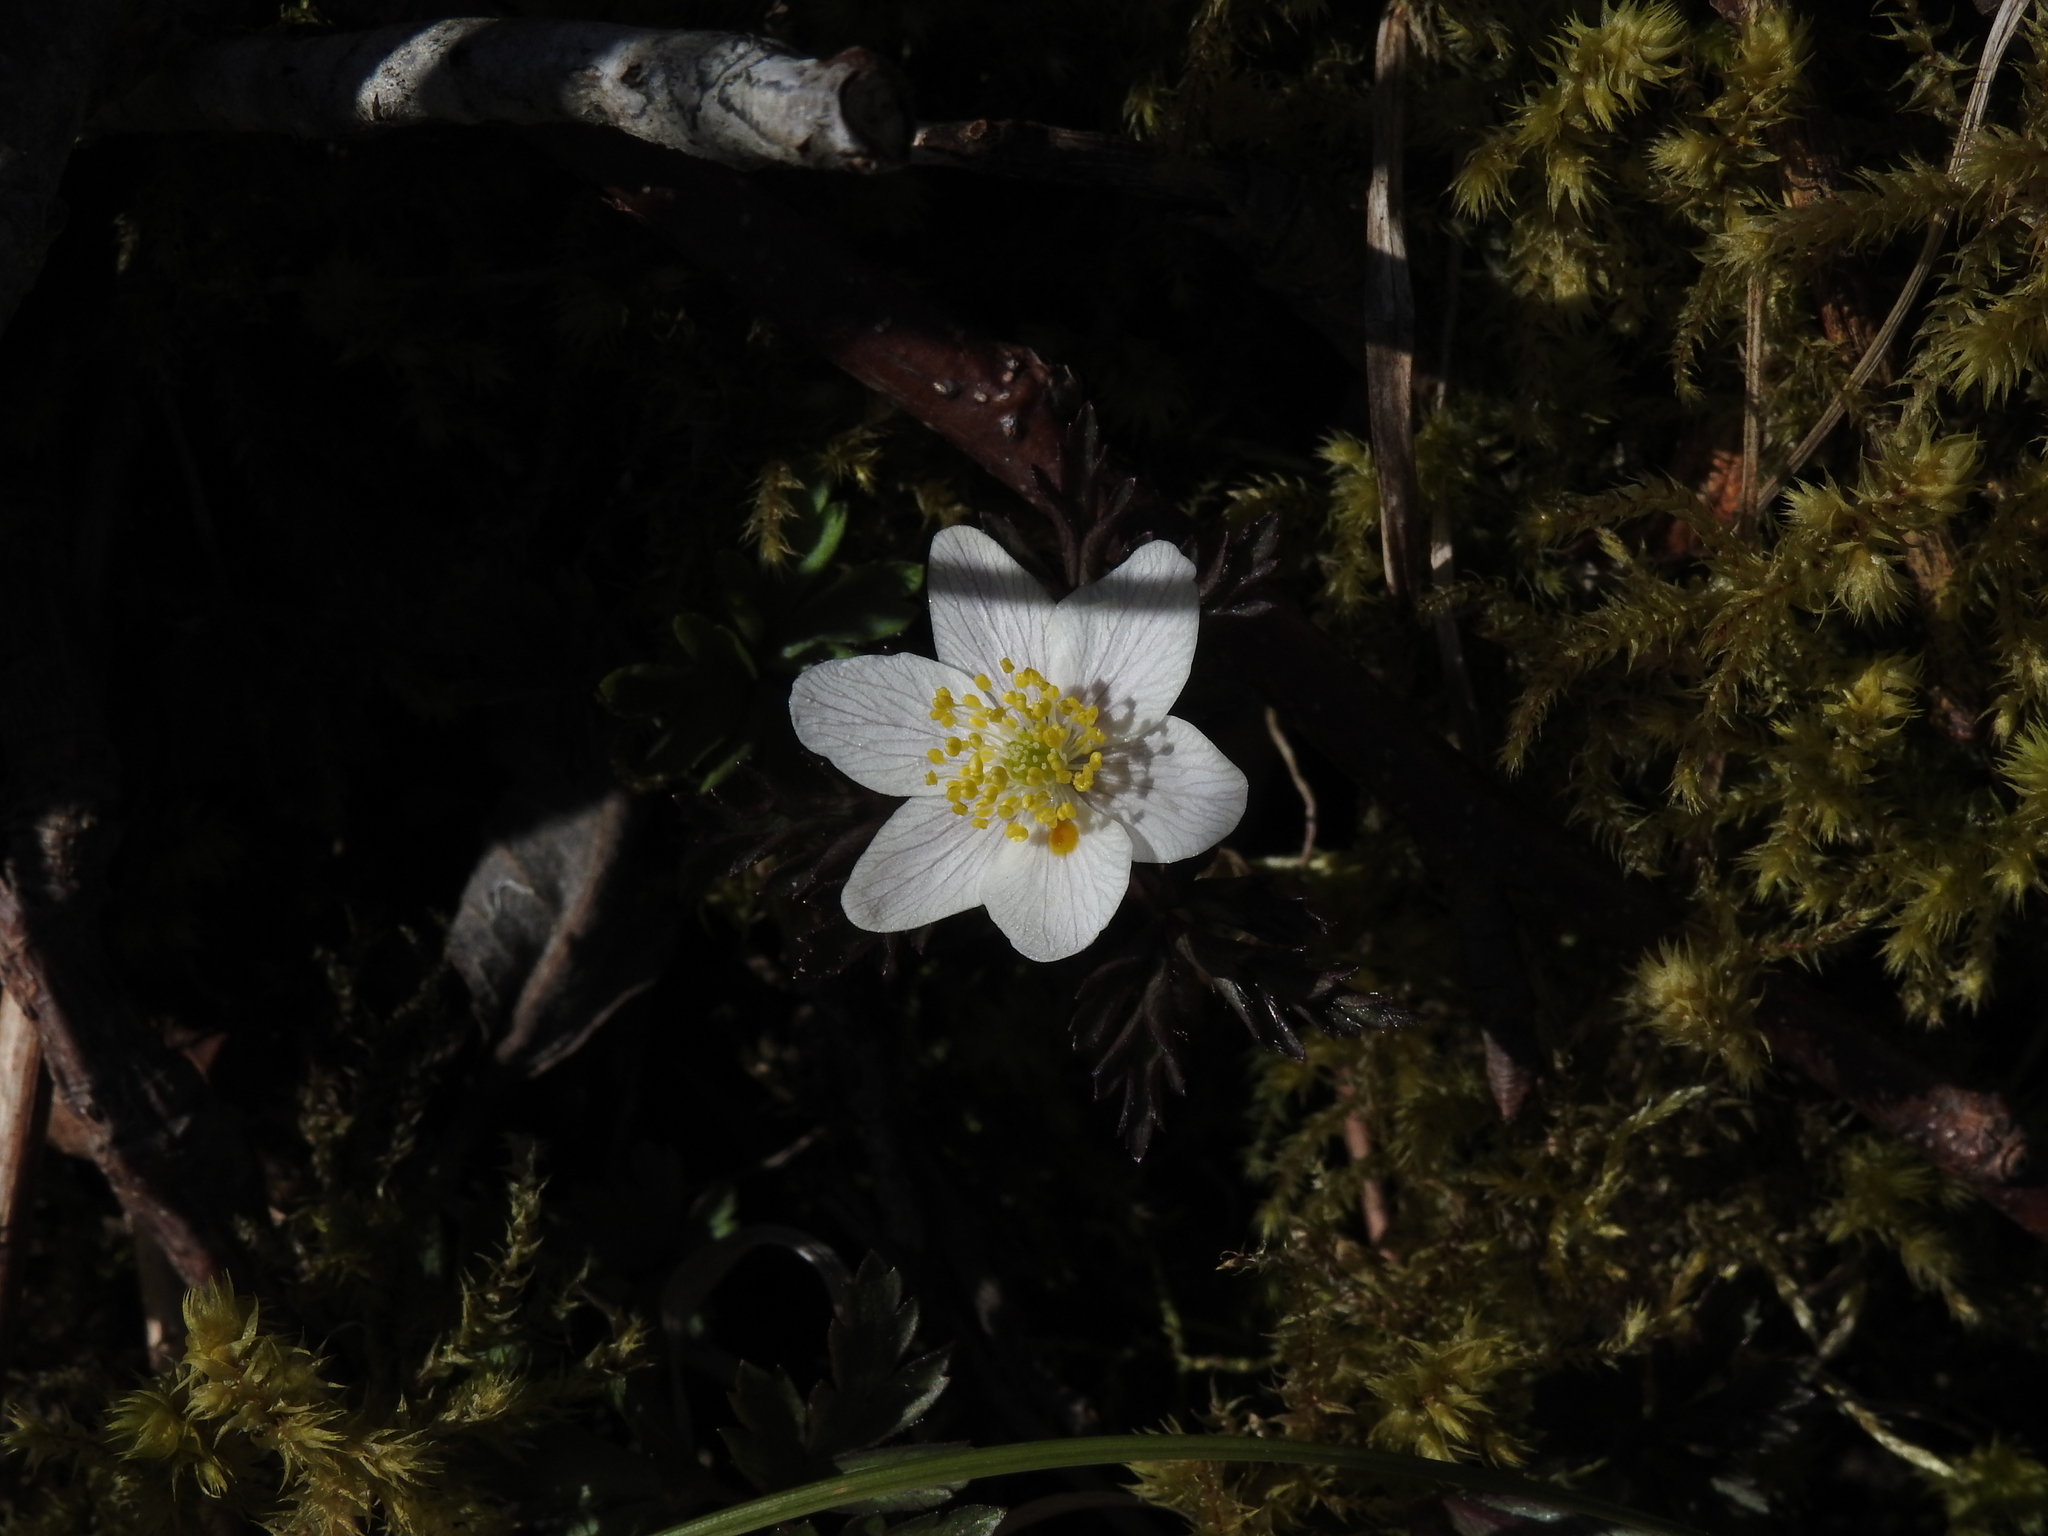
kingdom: Plantae
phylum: Tracheophyta
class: Magnoliopsida
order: Ranunculales
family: Ranunculaceae
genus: Anemone
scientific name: Anemone nemorosa
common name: Wood anemone
